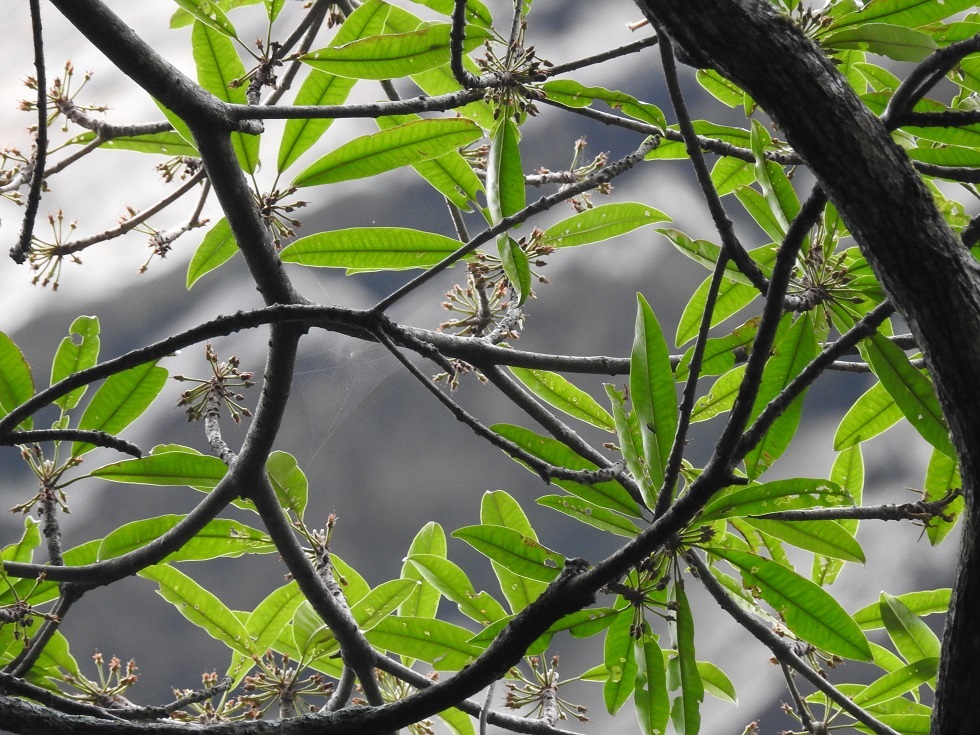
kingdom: Plantae
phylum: Tracheophyta
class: Magnoliopsida
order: Ericales
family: Sapotaceae
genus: Sideroxylon
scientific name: Sideroxylon tepicense
